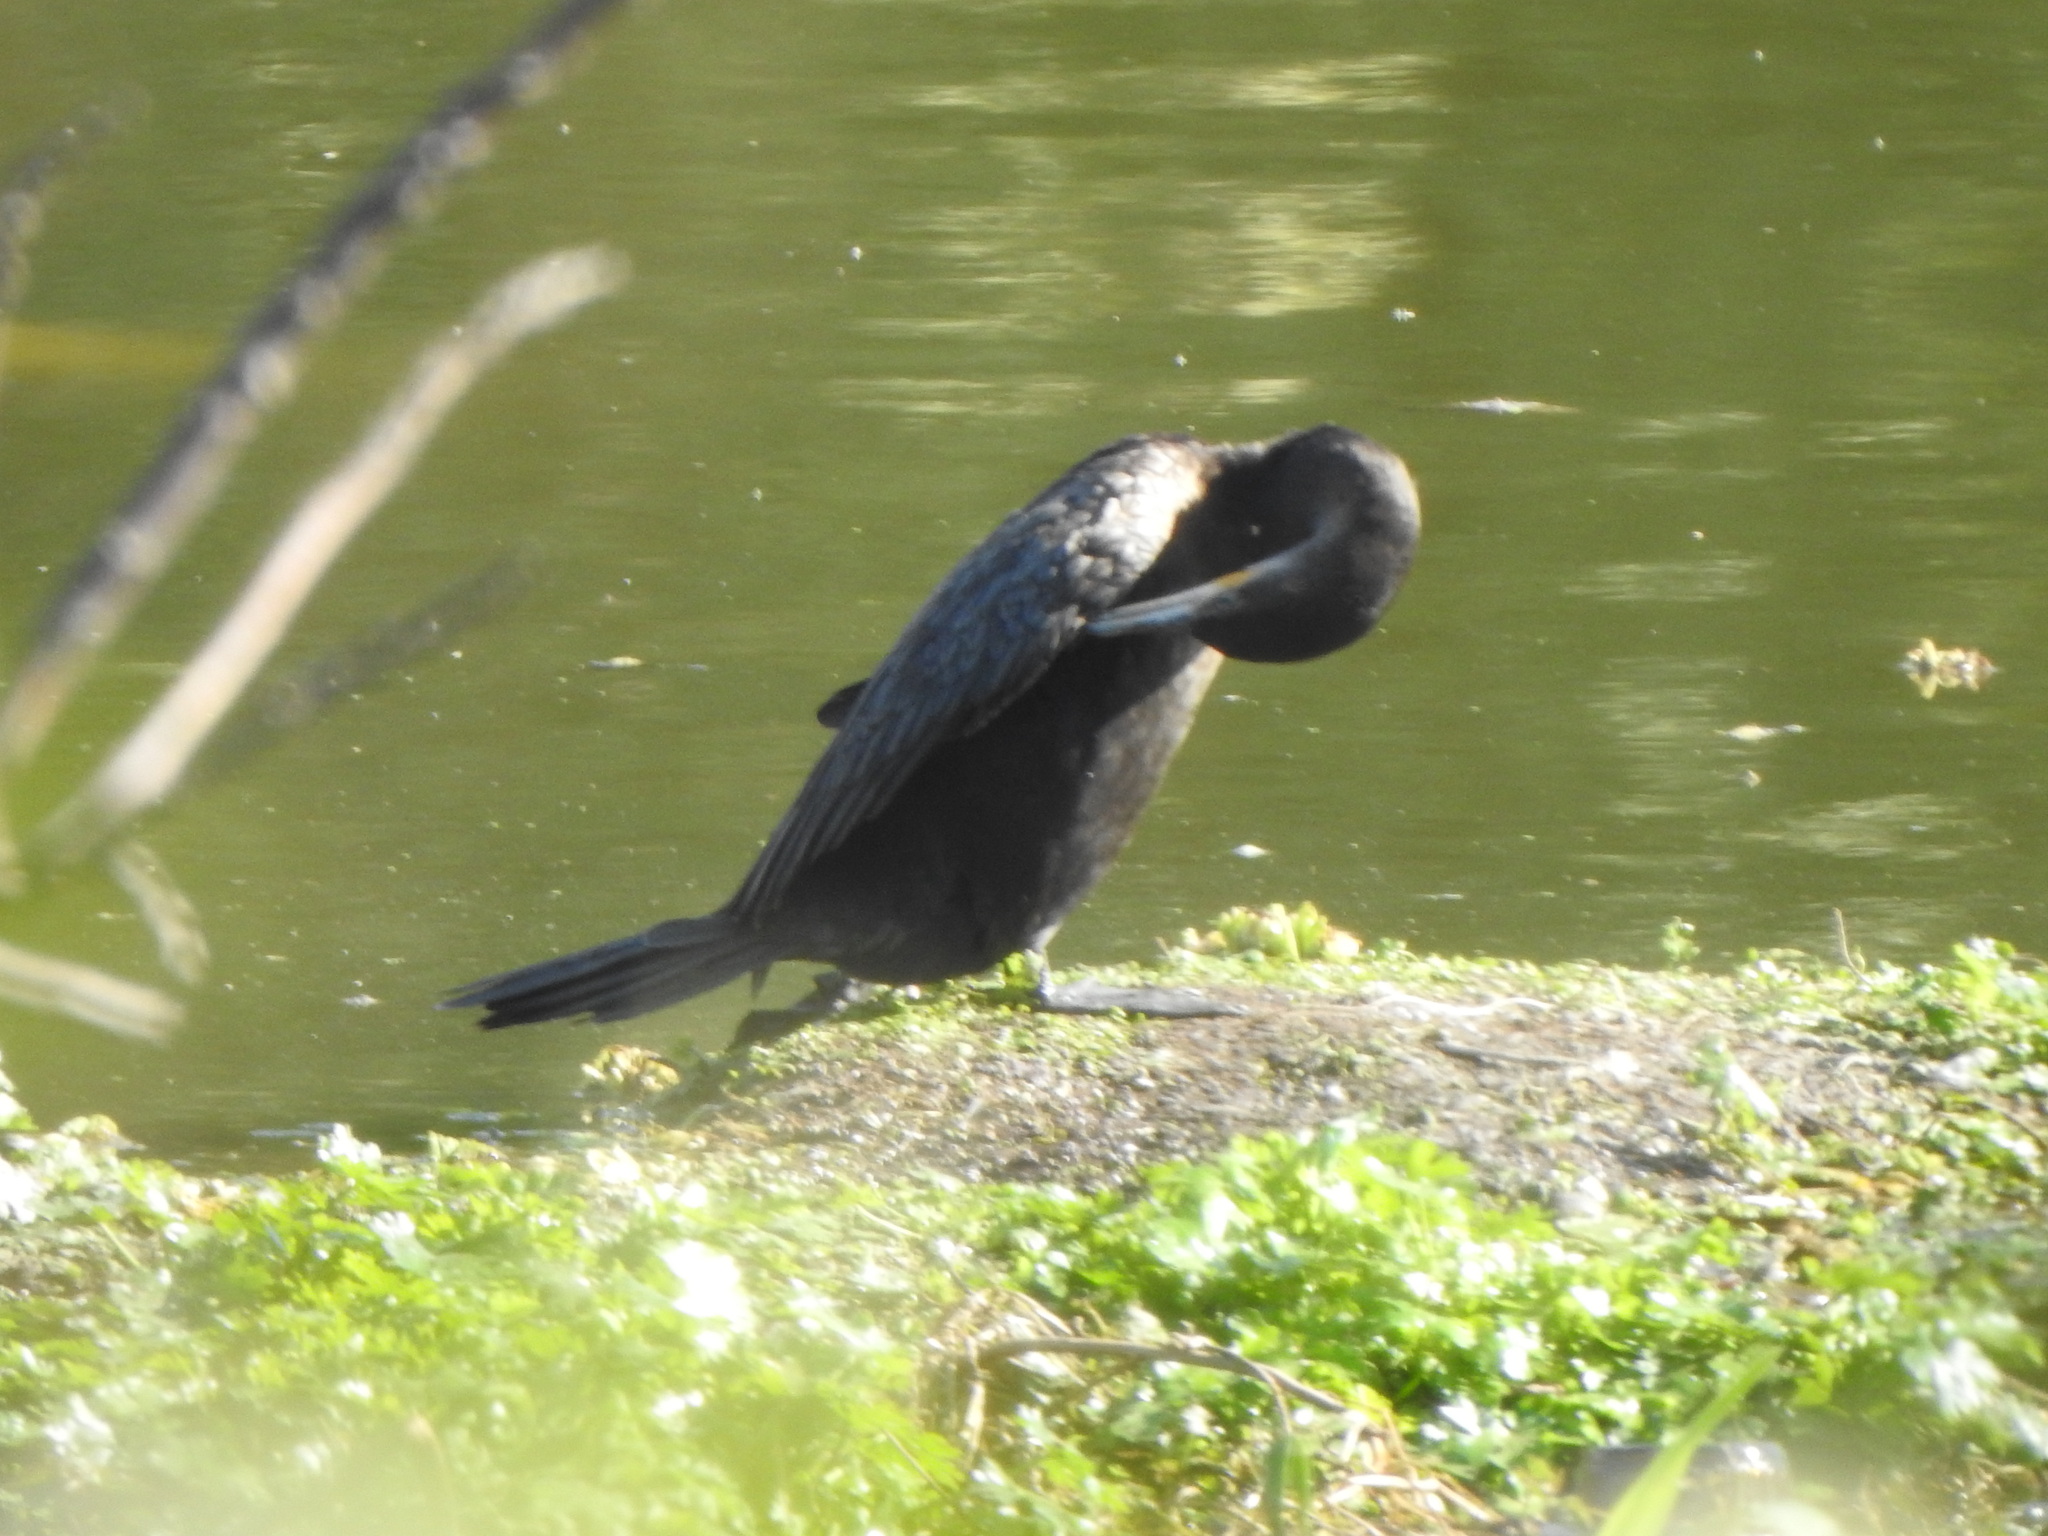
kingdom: Animalia
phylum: Chordata
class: Aves
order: Suliformes
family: Phalacrocoracidae
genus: Phalacrocorax
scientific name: Phalacrocorax brasilianus
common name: Neotropic cormorant
